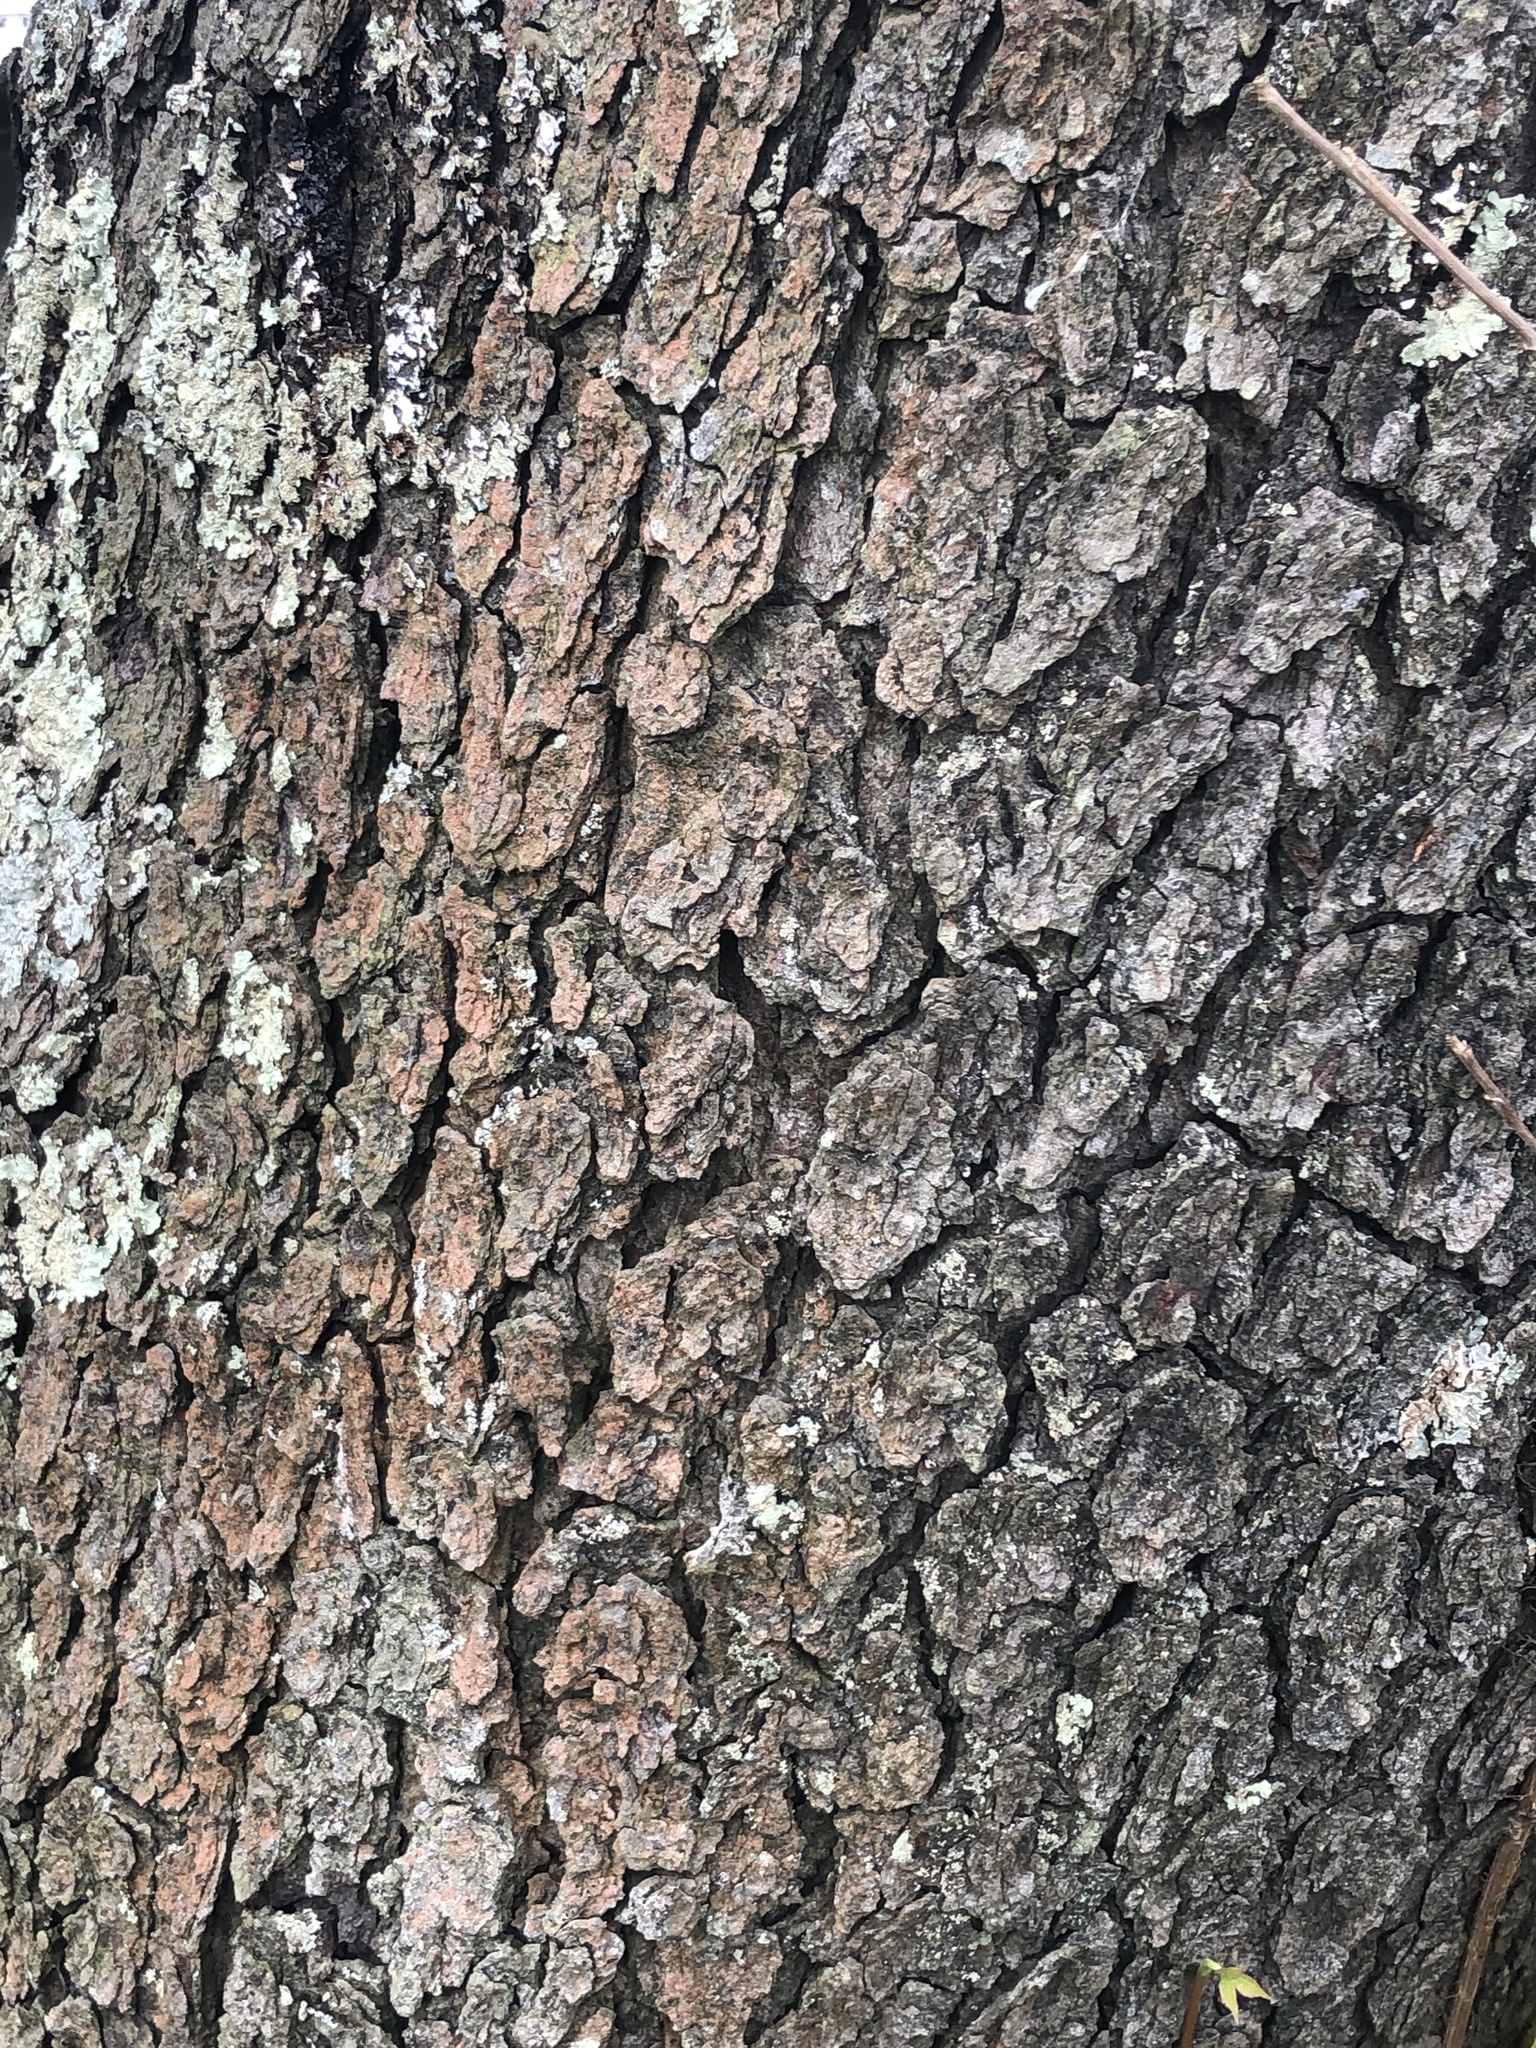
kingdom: Plantae
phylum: Tracheophyta
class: Magnoliopsida
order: Rosales
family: Rosaceae
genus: Prunus
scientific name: Prunus serotina
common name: Black cherry
